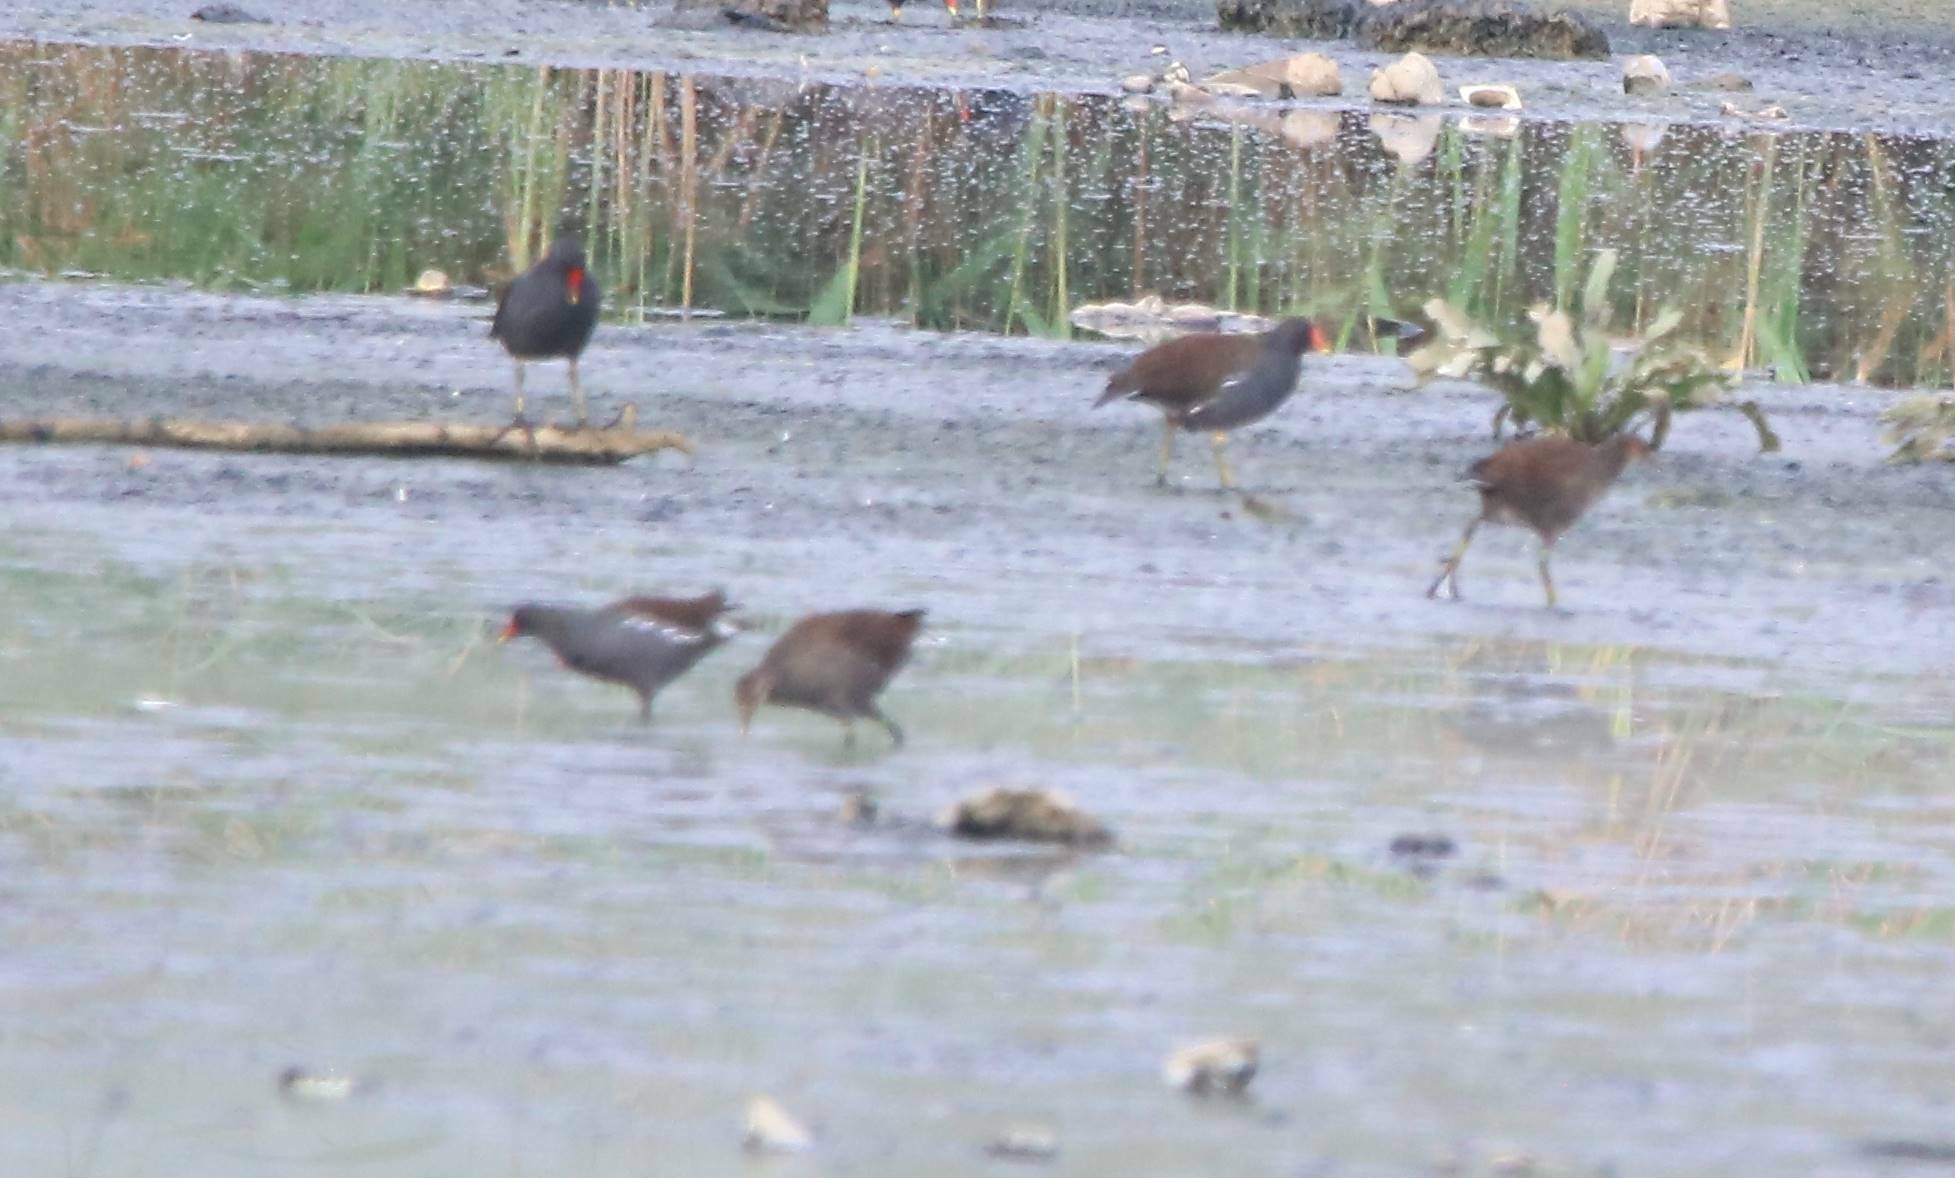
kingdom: Animalia
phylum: Chordata
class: Aves
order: Gruiformes
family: Rallidae
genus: Gallinula
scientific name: Gallinula chloropus
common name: Common moorhen
